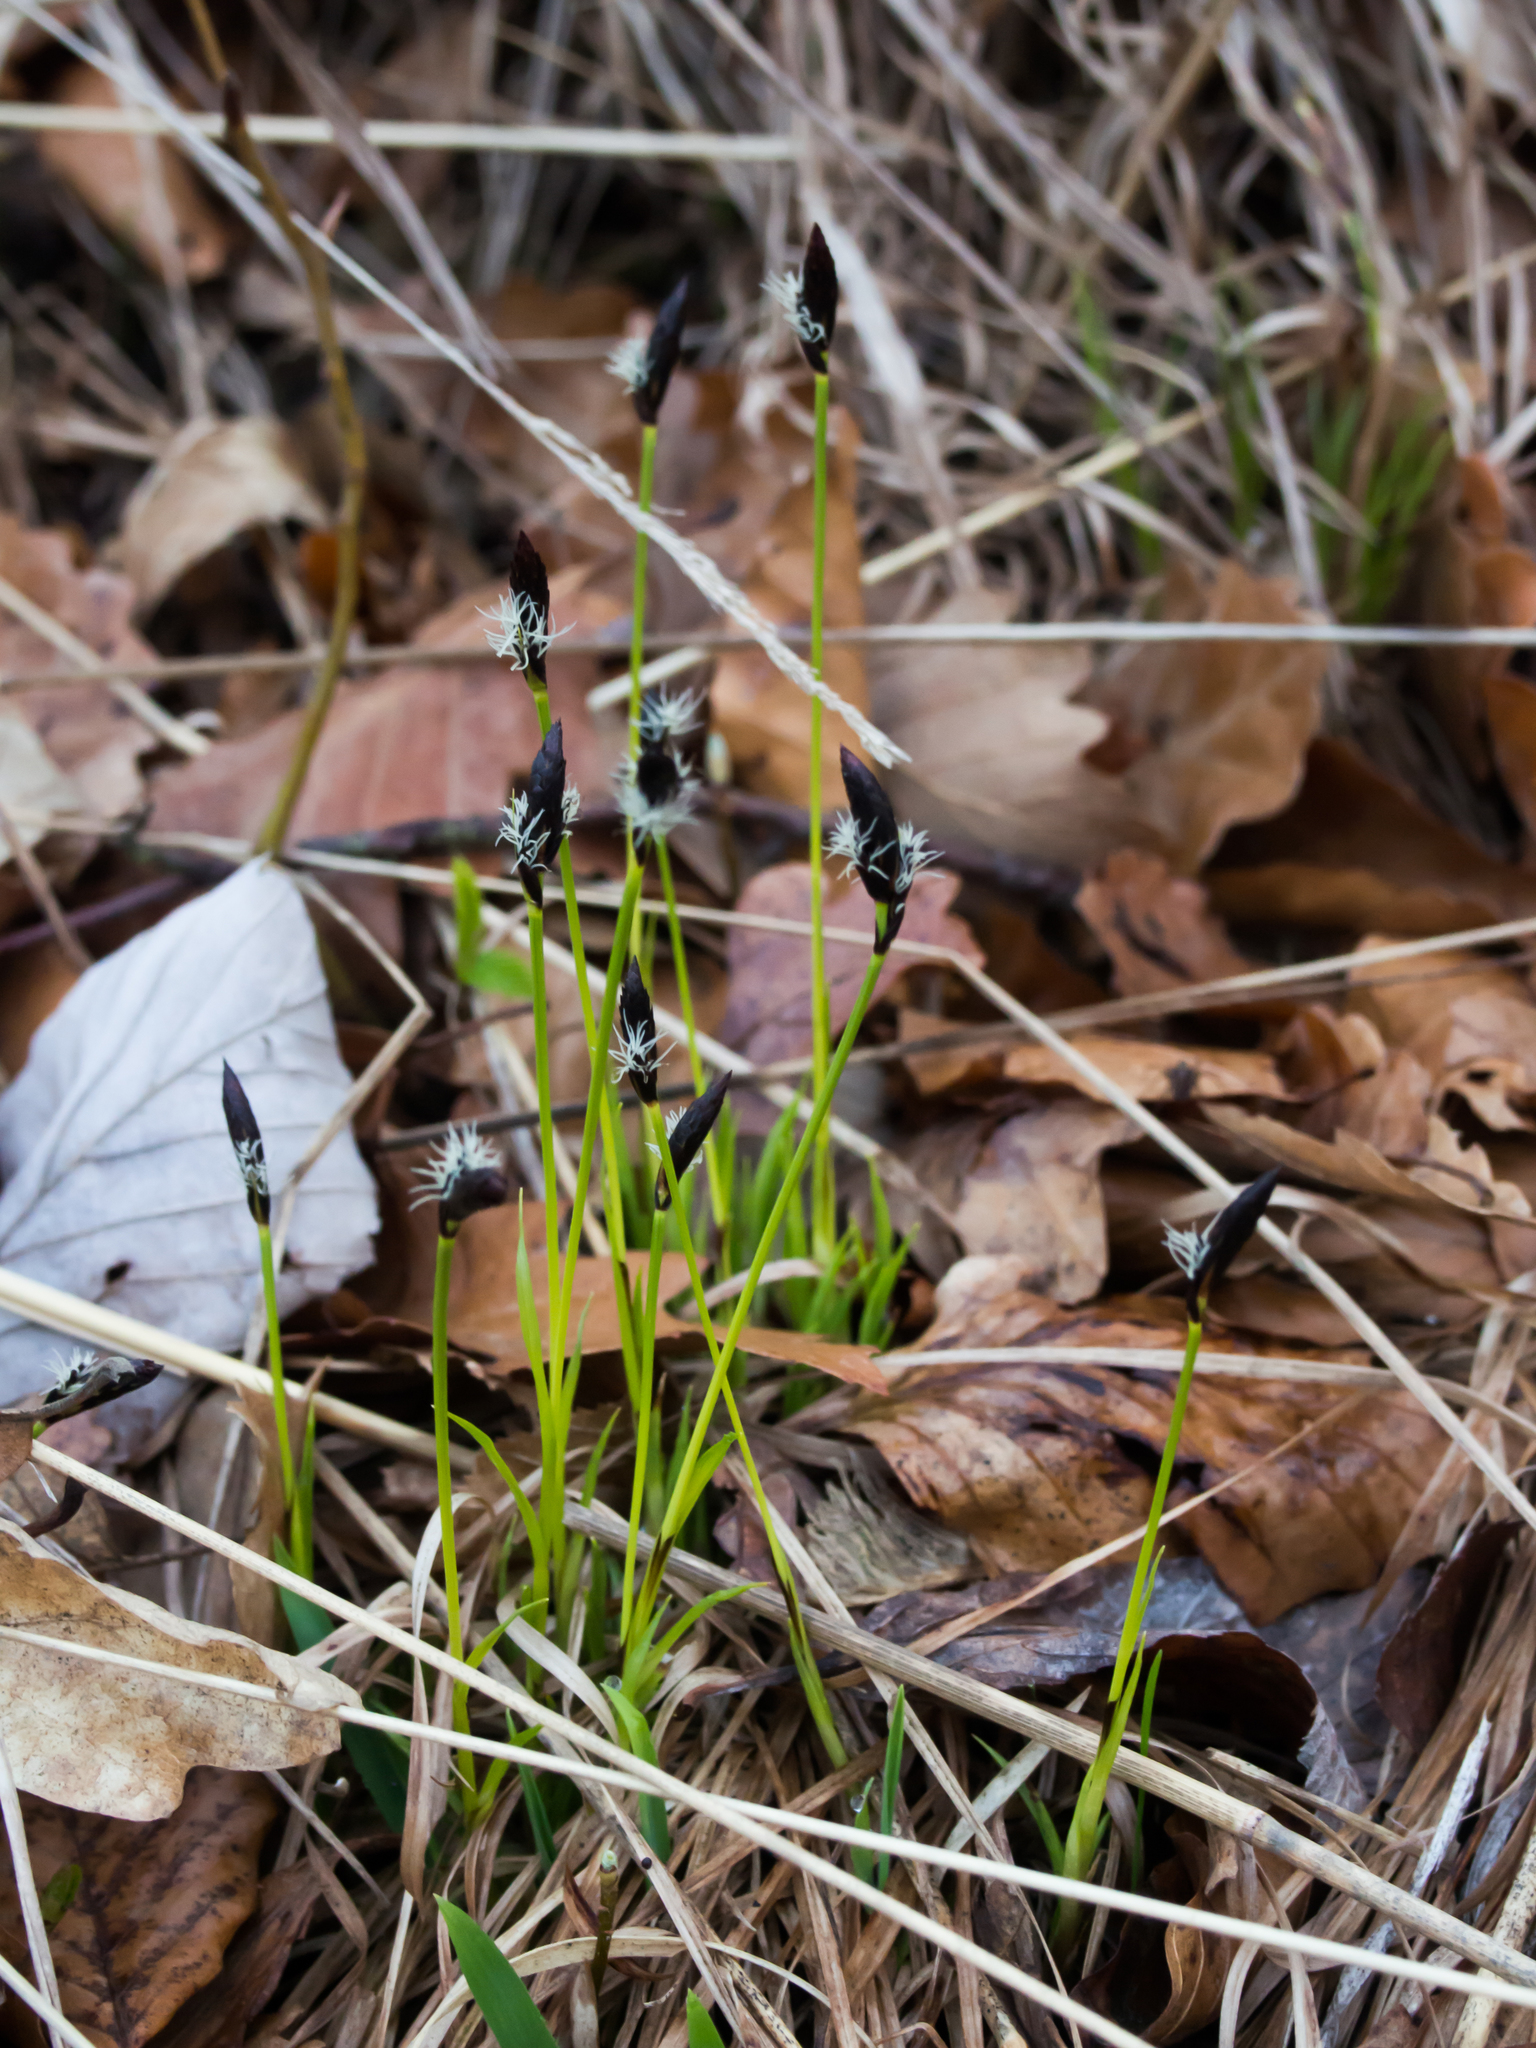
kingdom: Plantae
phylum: Tracheophyta
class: Liliopsida
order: Poales
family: Cyperaceae
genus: Carex
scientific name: Carex montana
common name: Soft-leaved sedge
